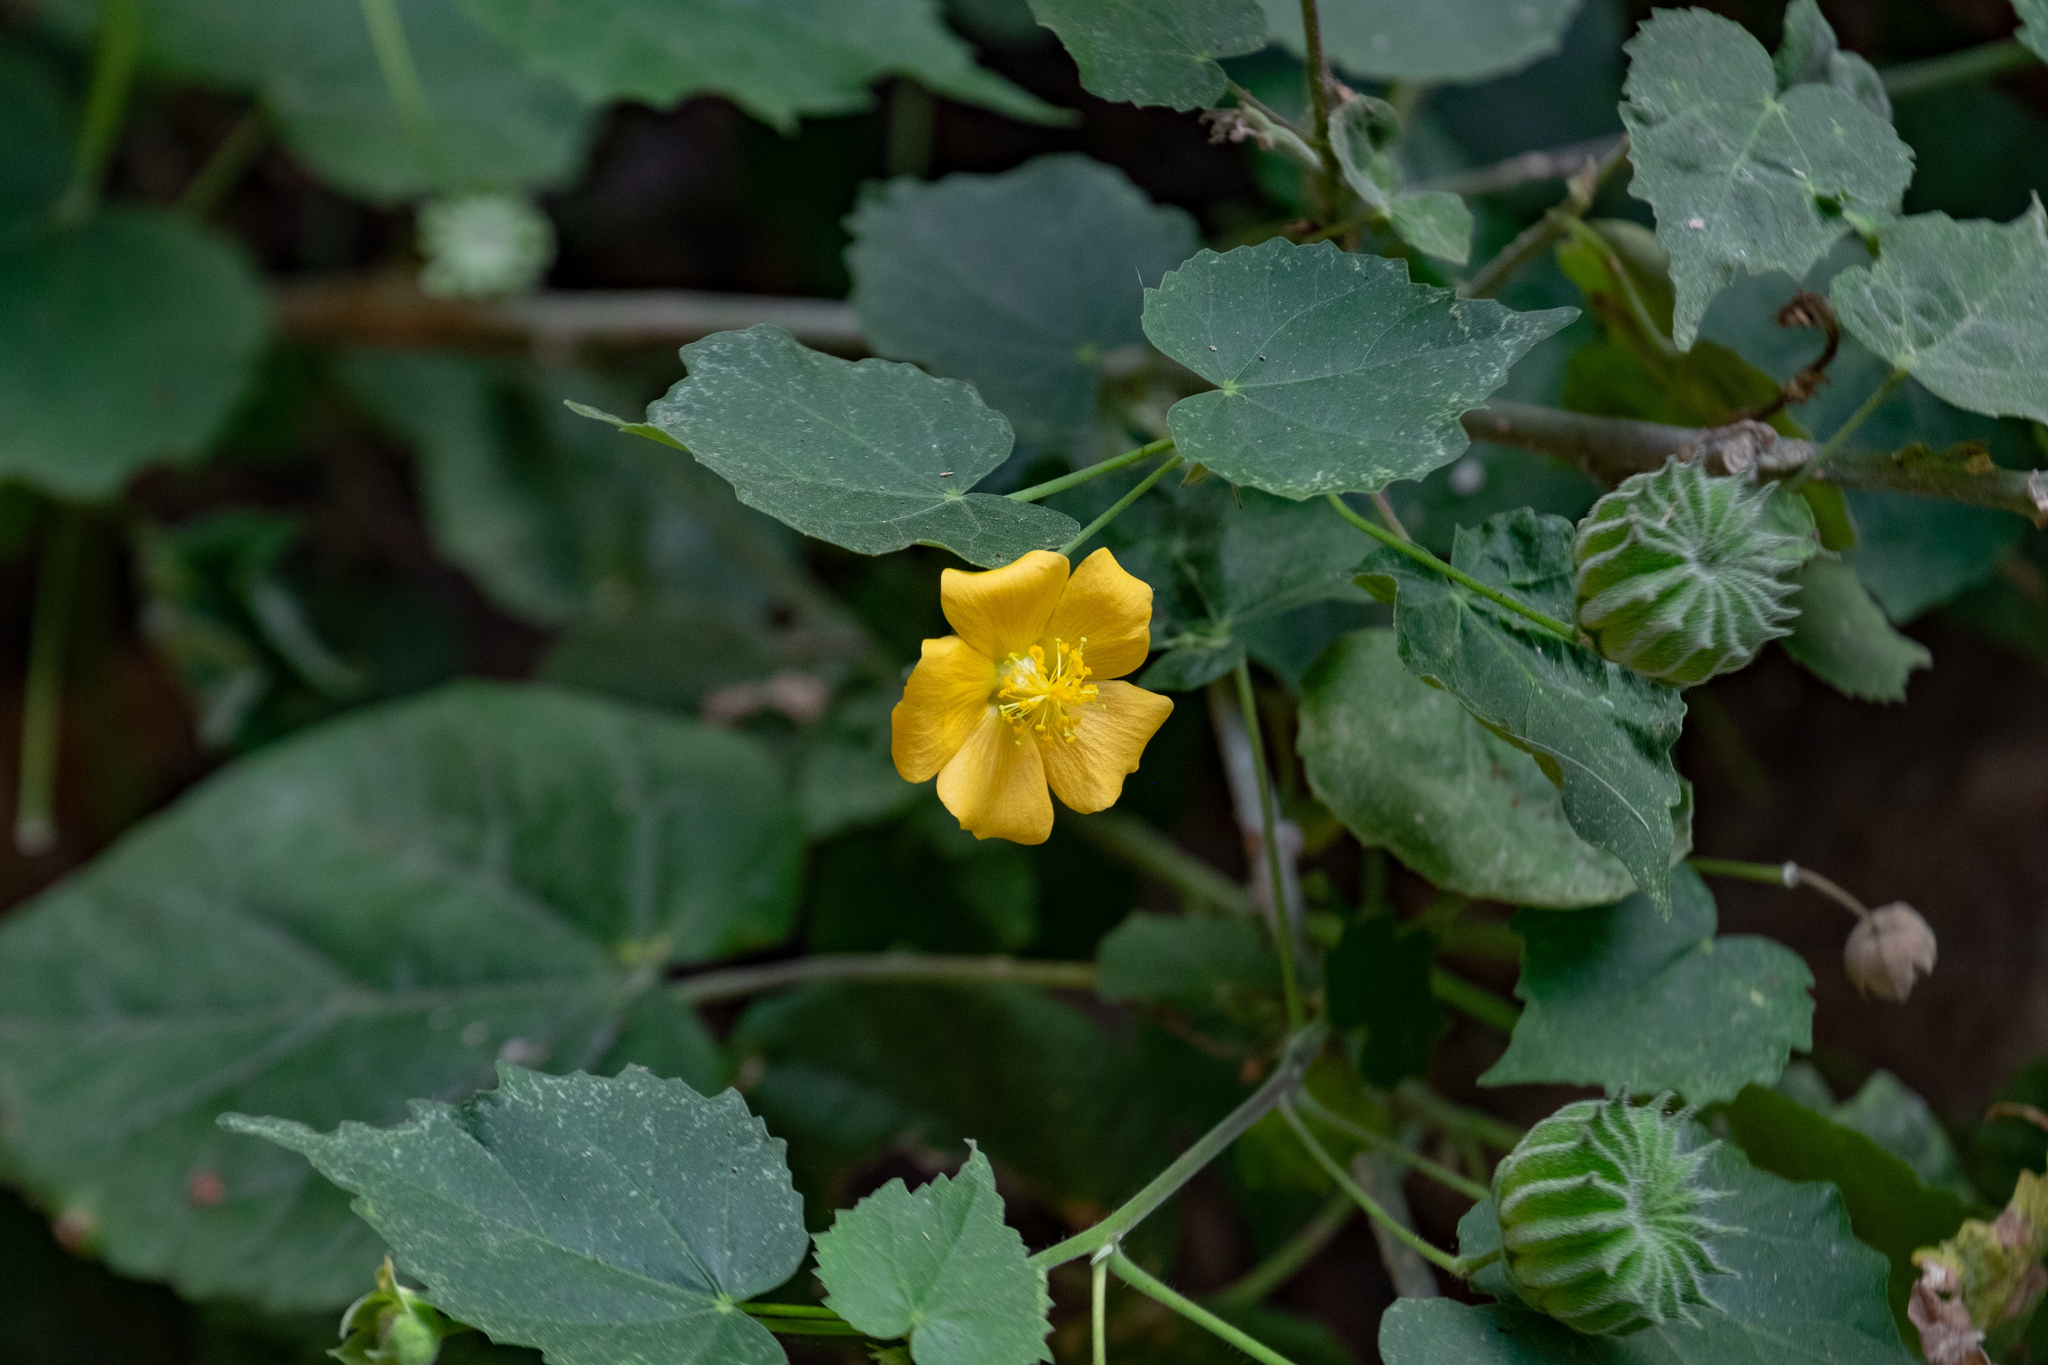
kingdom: Plantae
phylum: Tracheophyta
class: Magnoliopsida
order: Malvales
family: Malvaceae
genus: Abutilon
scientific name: Abutilon indicum
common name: Indian abutilon
